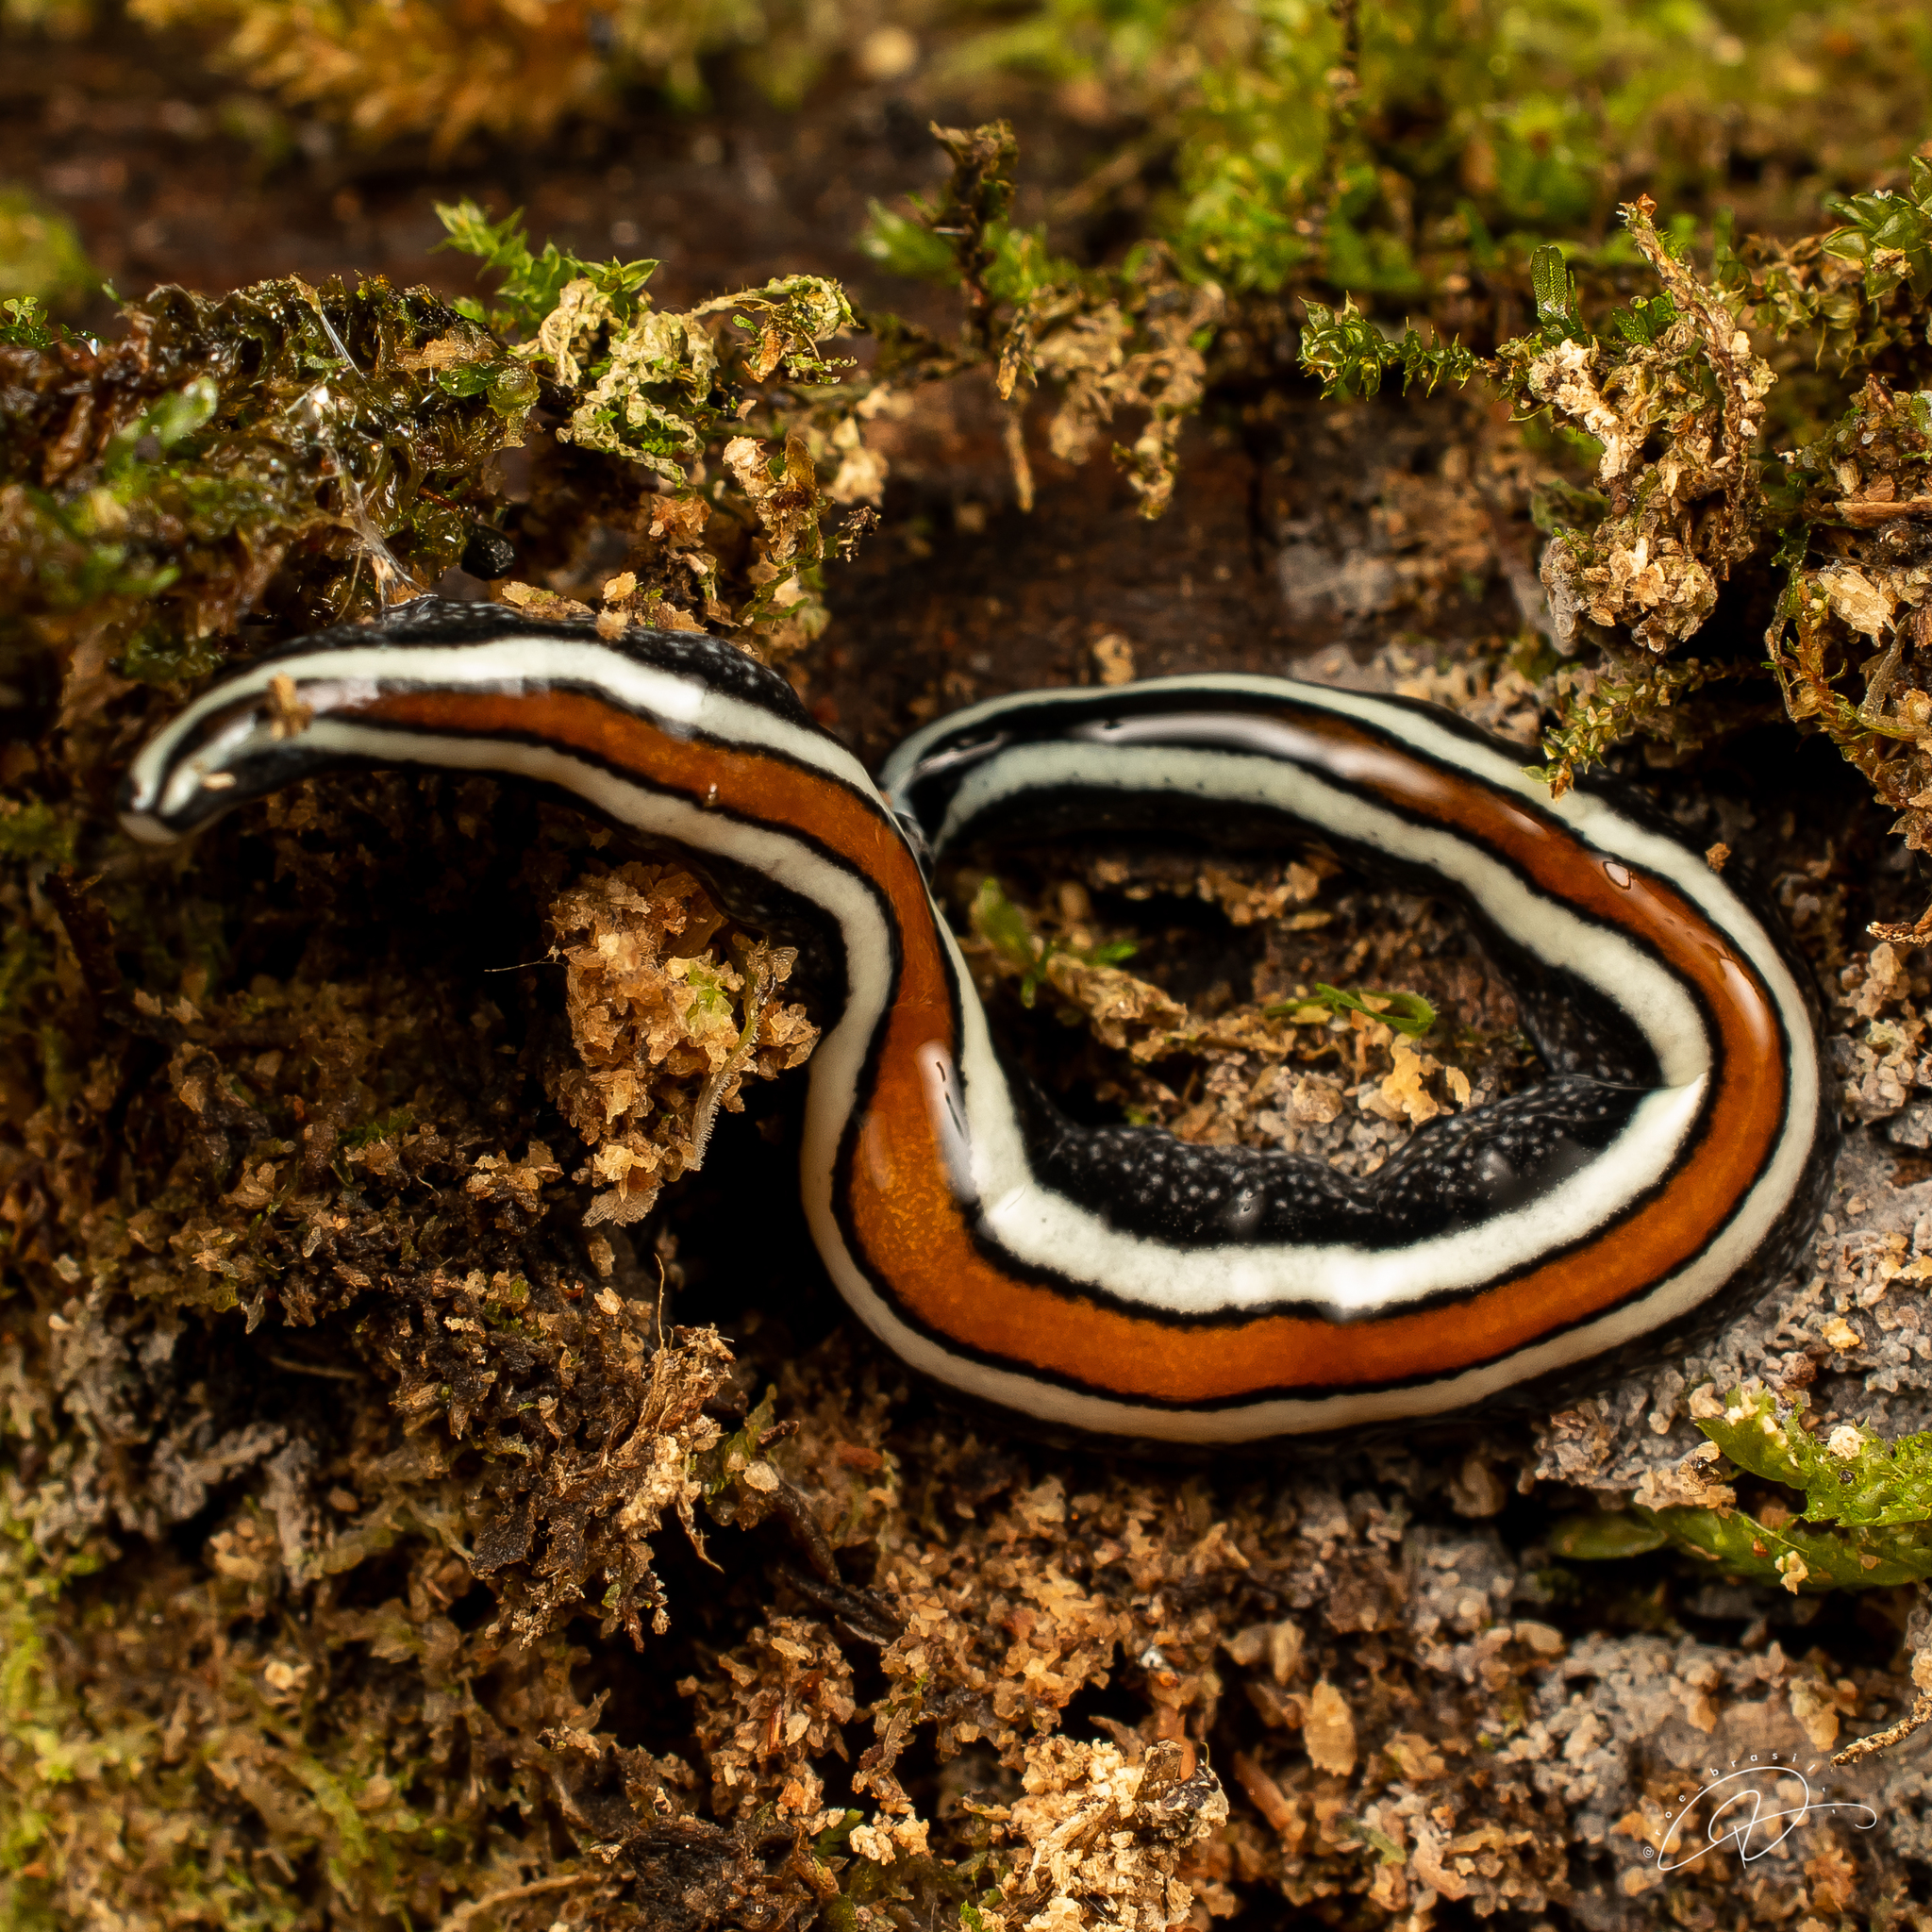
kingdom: Animalia
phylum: Platyhelminthes
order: Tricladida
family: Geoplanidae
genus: Geoplana
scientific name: Geoplana paranapiacaba
